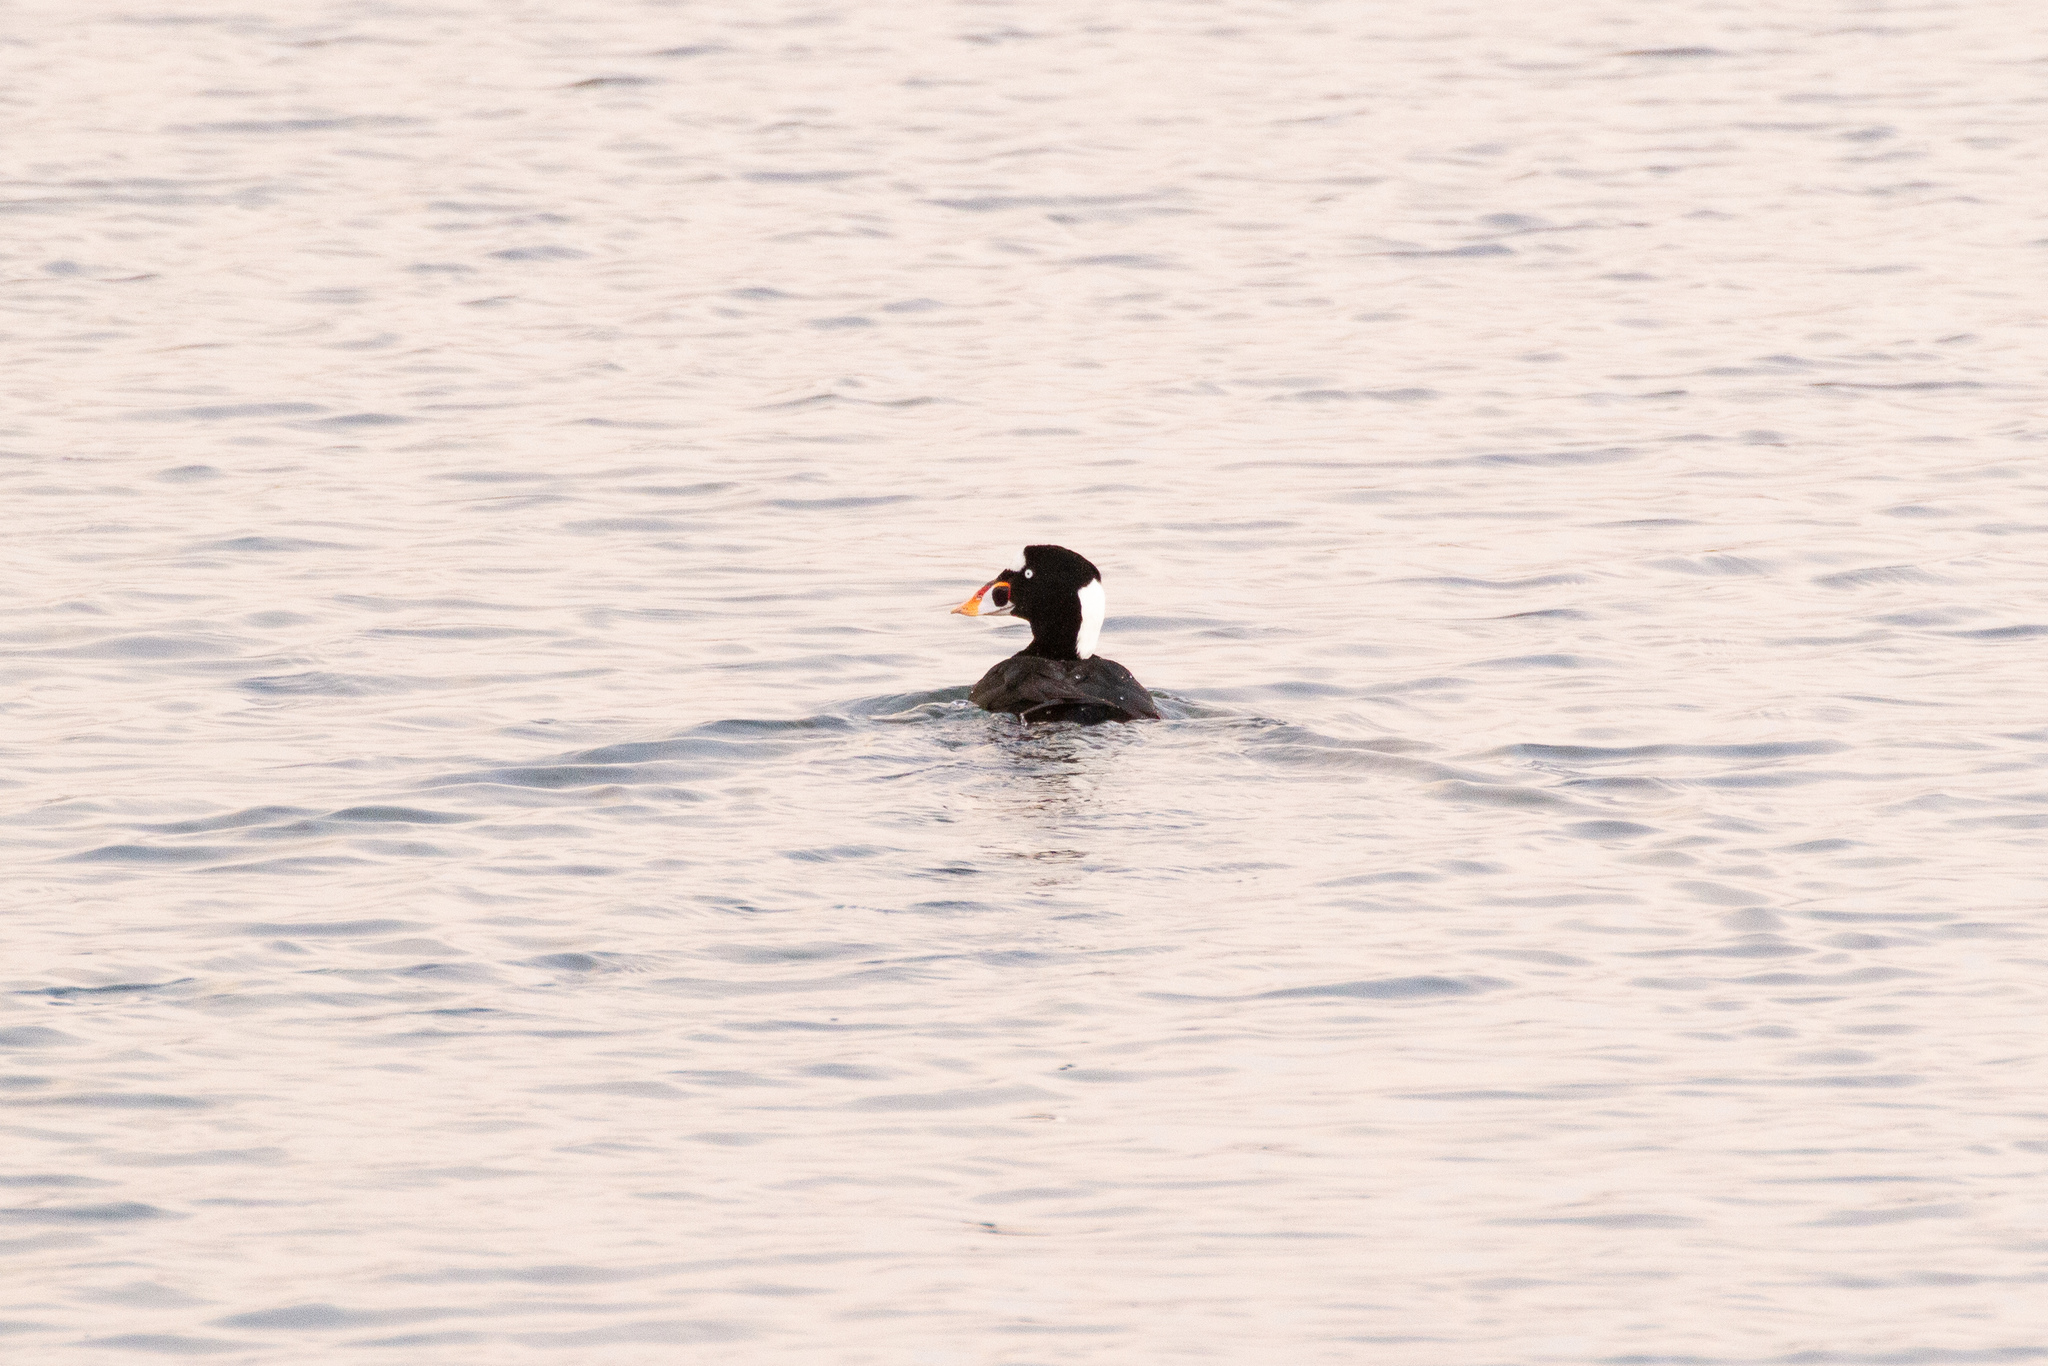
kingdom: Animalia
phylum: Chordata
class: Aves
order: Anseriformes
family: Anatidae
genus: Melanitta
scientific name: Melanitta perspicillata
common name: Surf scoter
